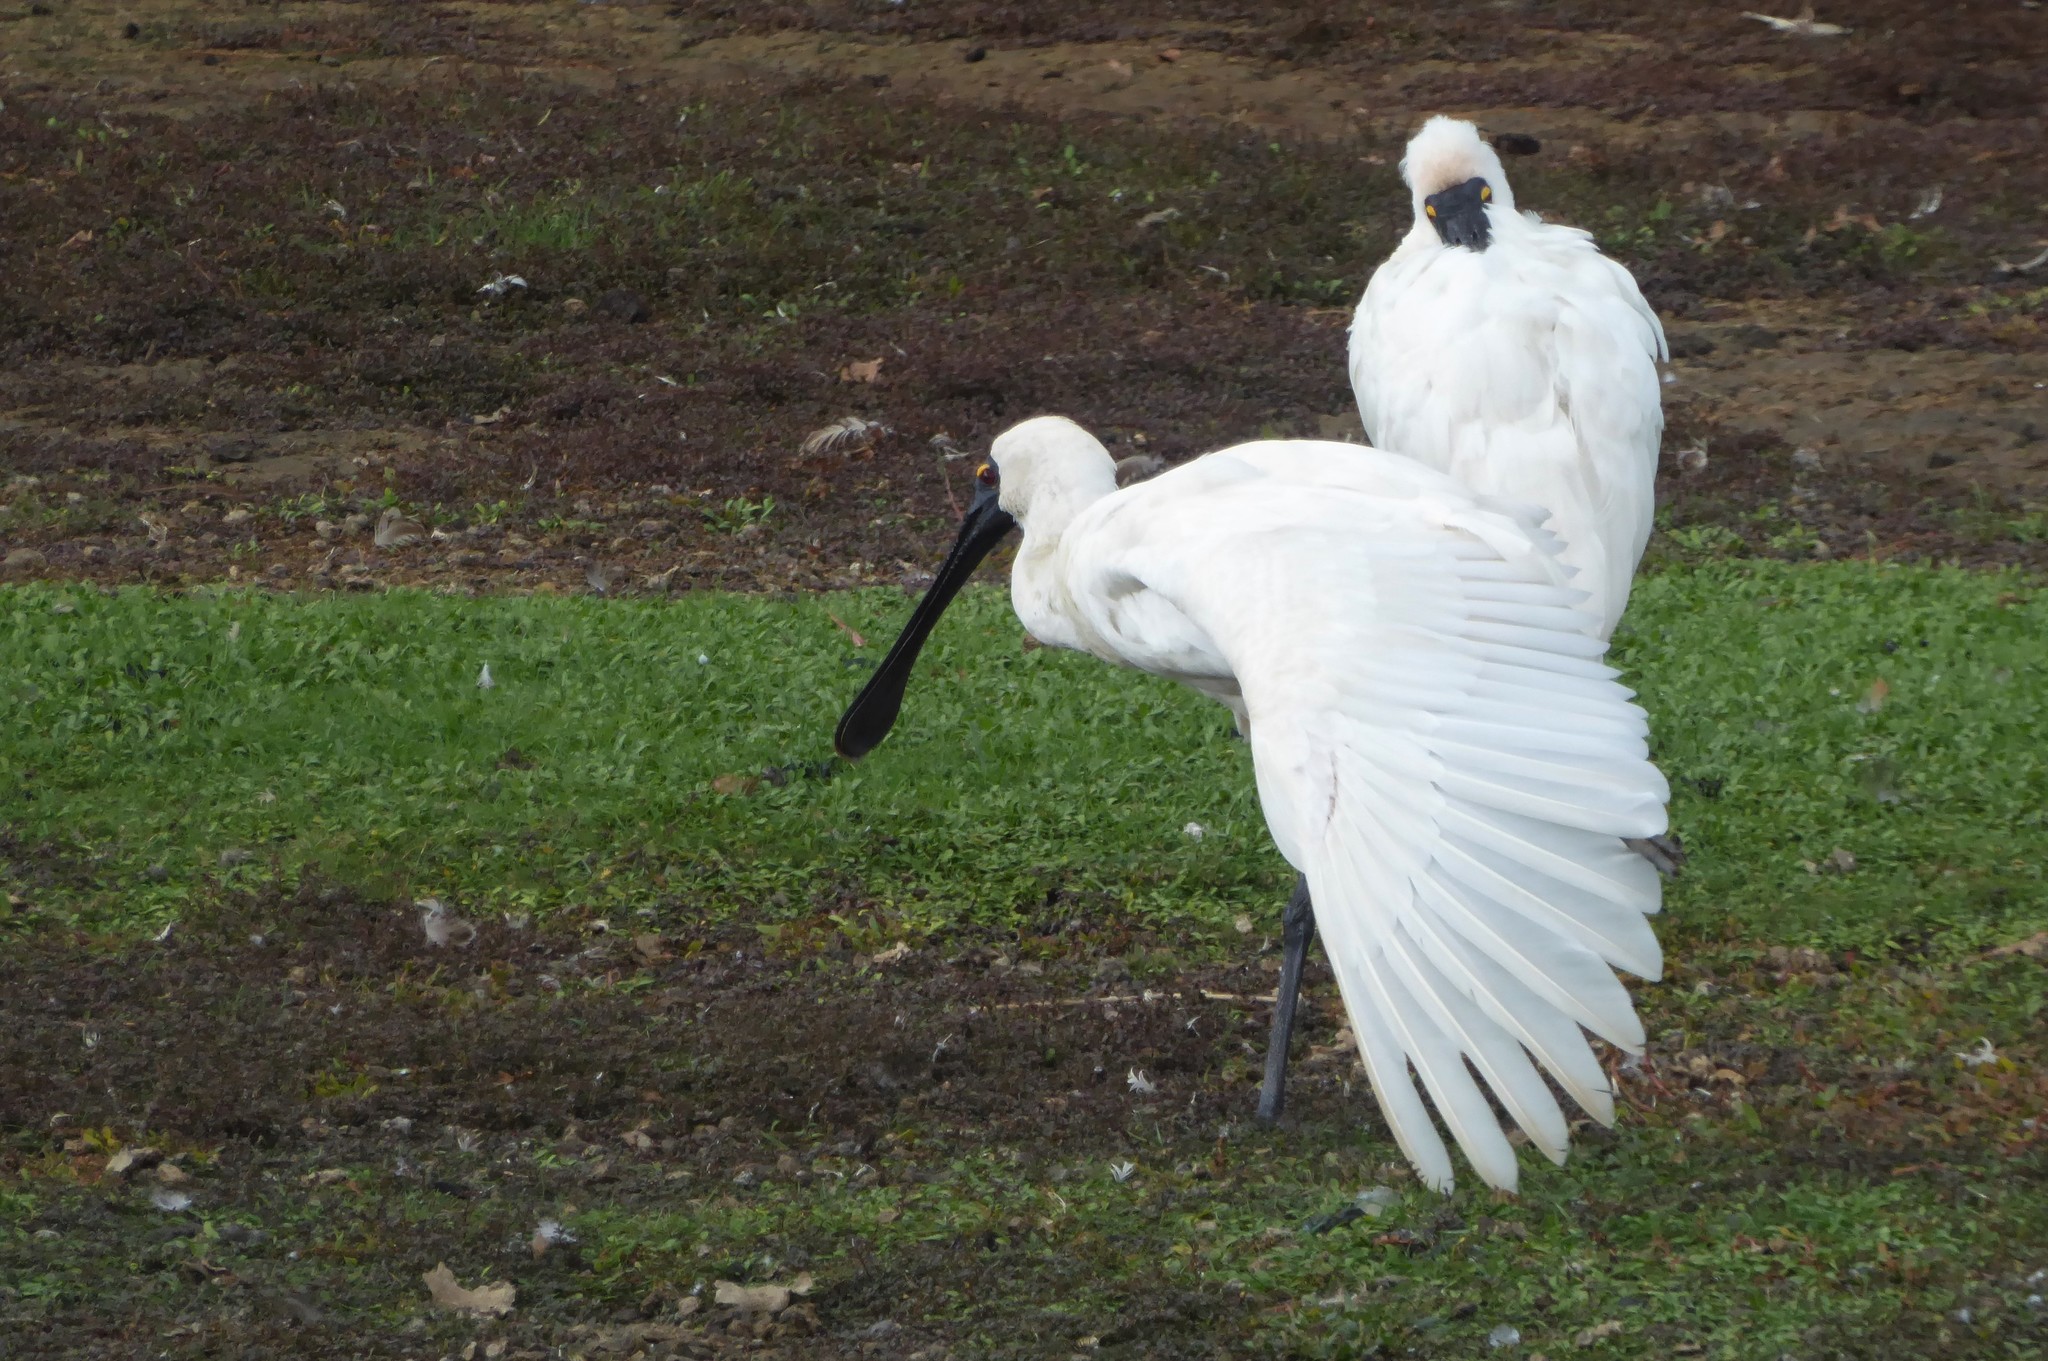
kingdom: Animalia
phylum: Chordata
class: Aves
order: Pelecaniformes
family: Threskiornithidae
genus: Platalea
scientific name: Platalea regia
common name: Royal spoonbill
